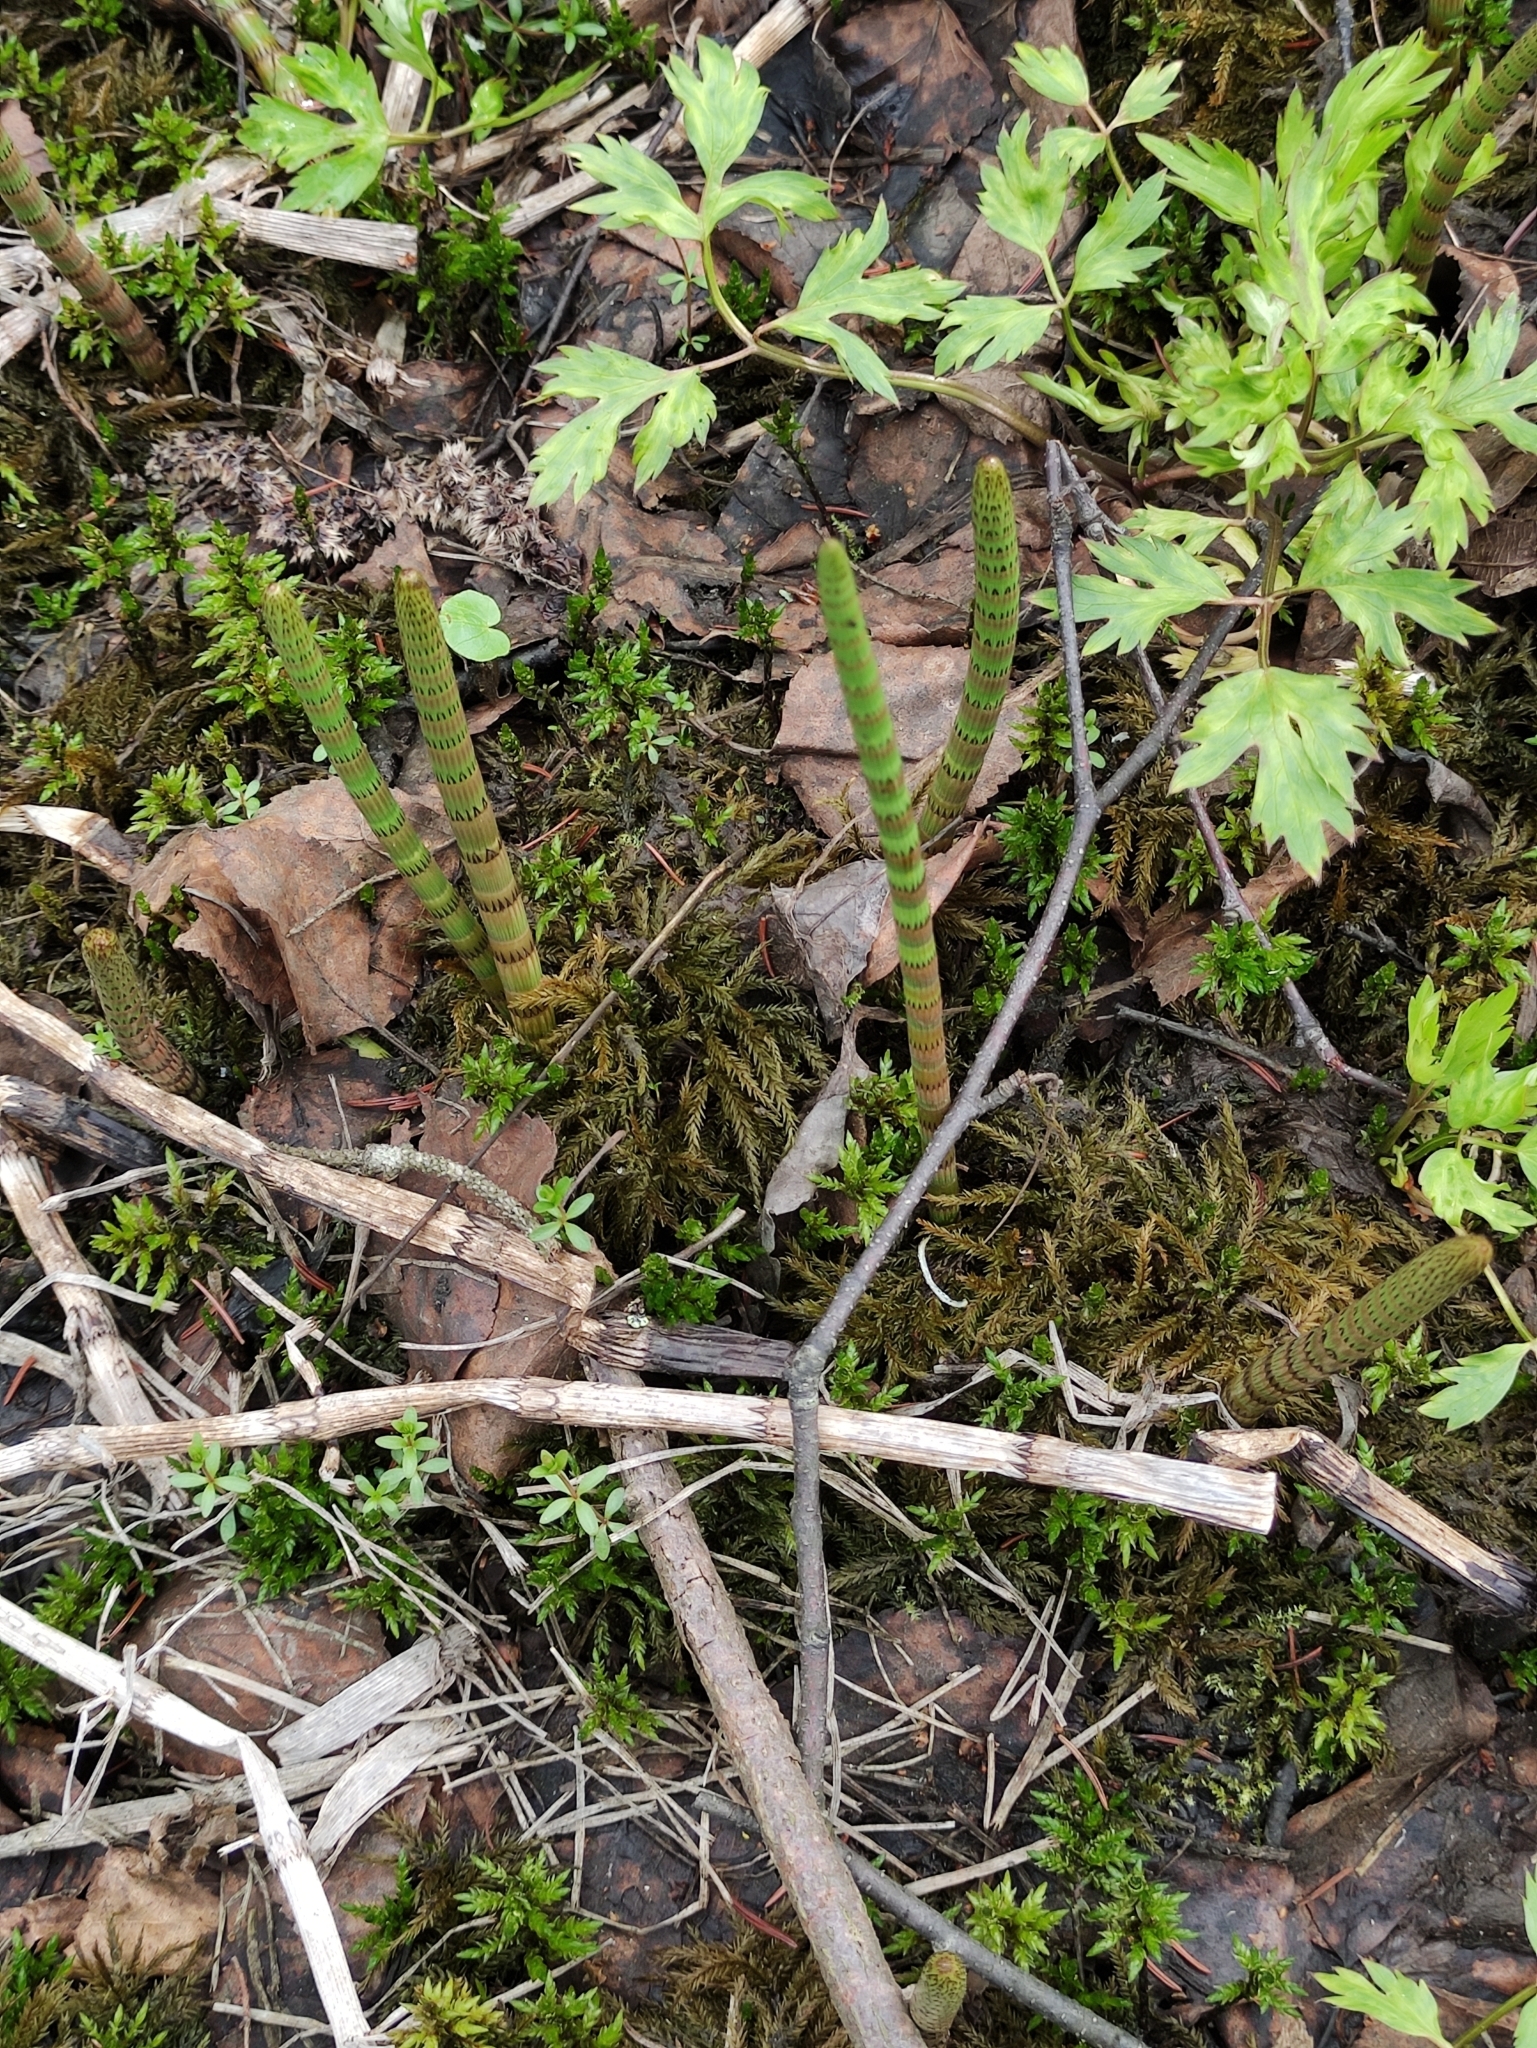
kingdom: Plantae
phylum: Tracheophyta
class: Polypodiopsida
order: Equisetales
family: Equisetaceae
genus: Equisetum
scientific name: Equisetum fluviatile
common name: Water horsetail
